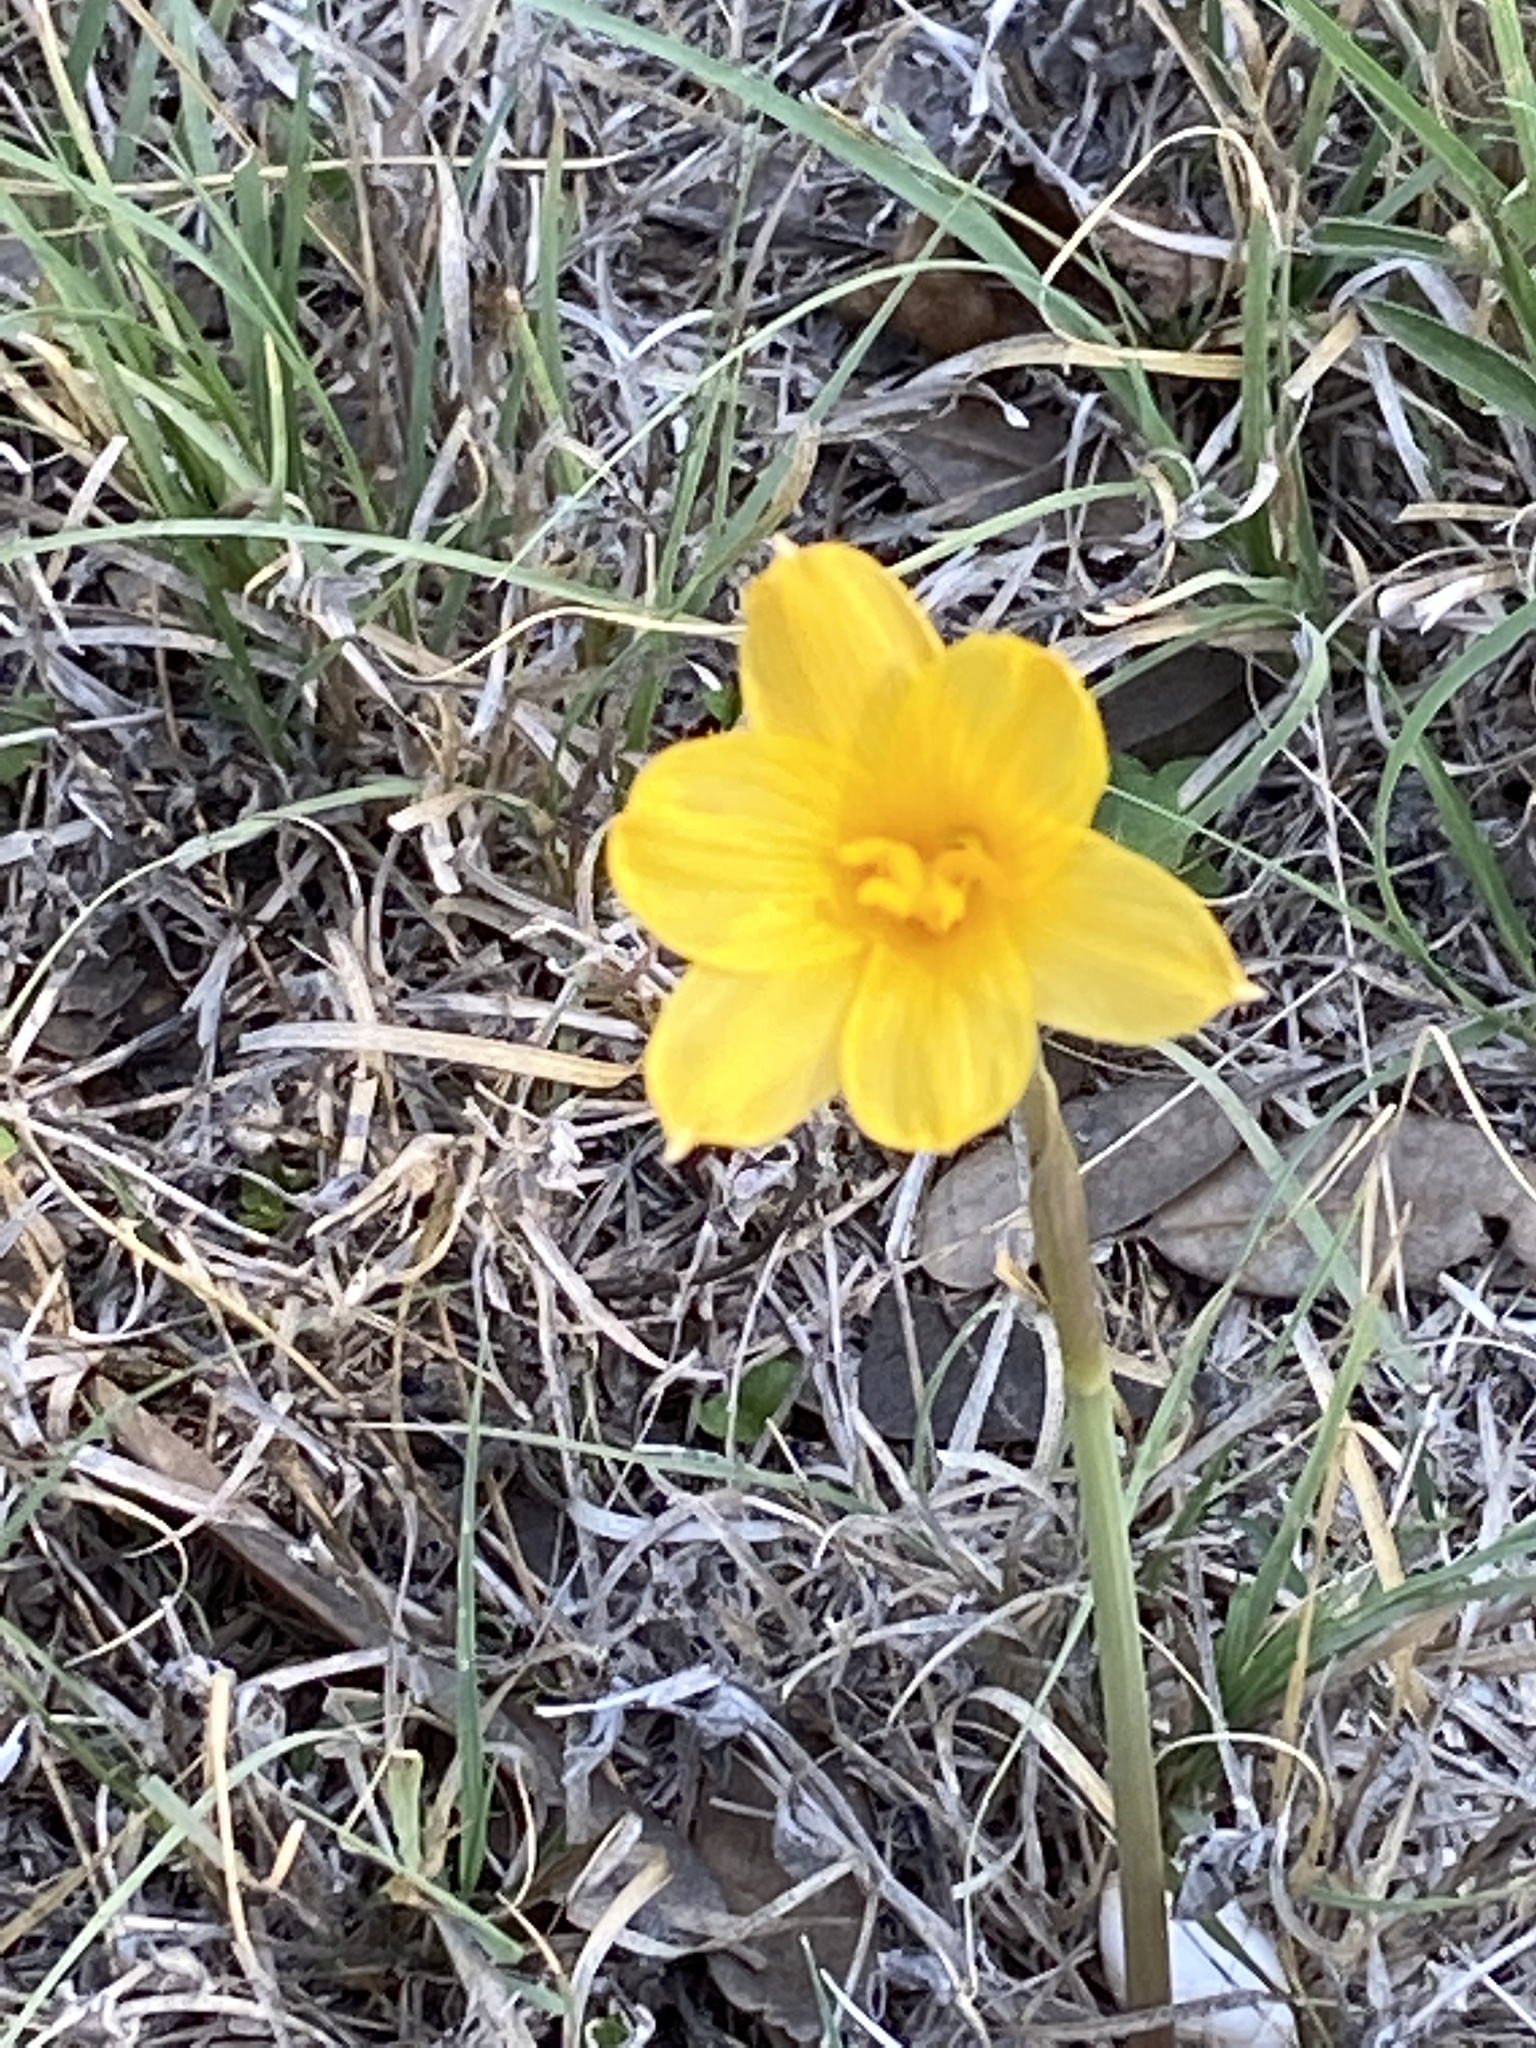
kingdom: Plantae
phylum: Tracheophyta
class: Liliopsida
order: Asparagales
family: Amaryllidaceae
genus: Zephyranthes
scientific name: Zephyranthes tubispatha
